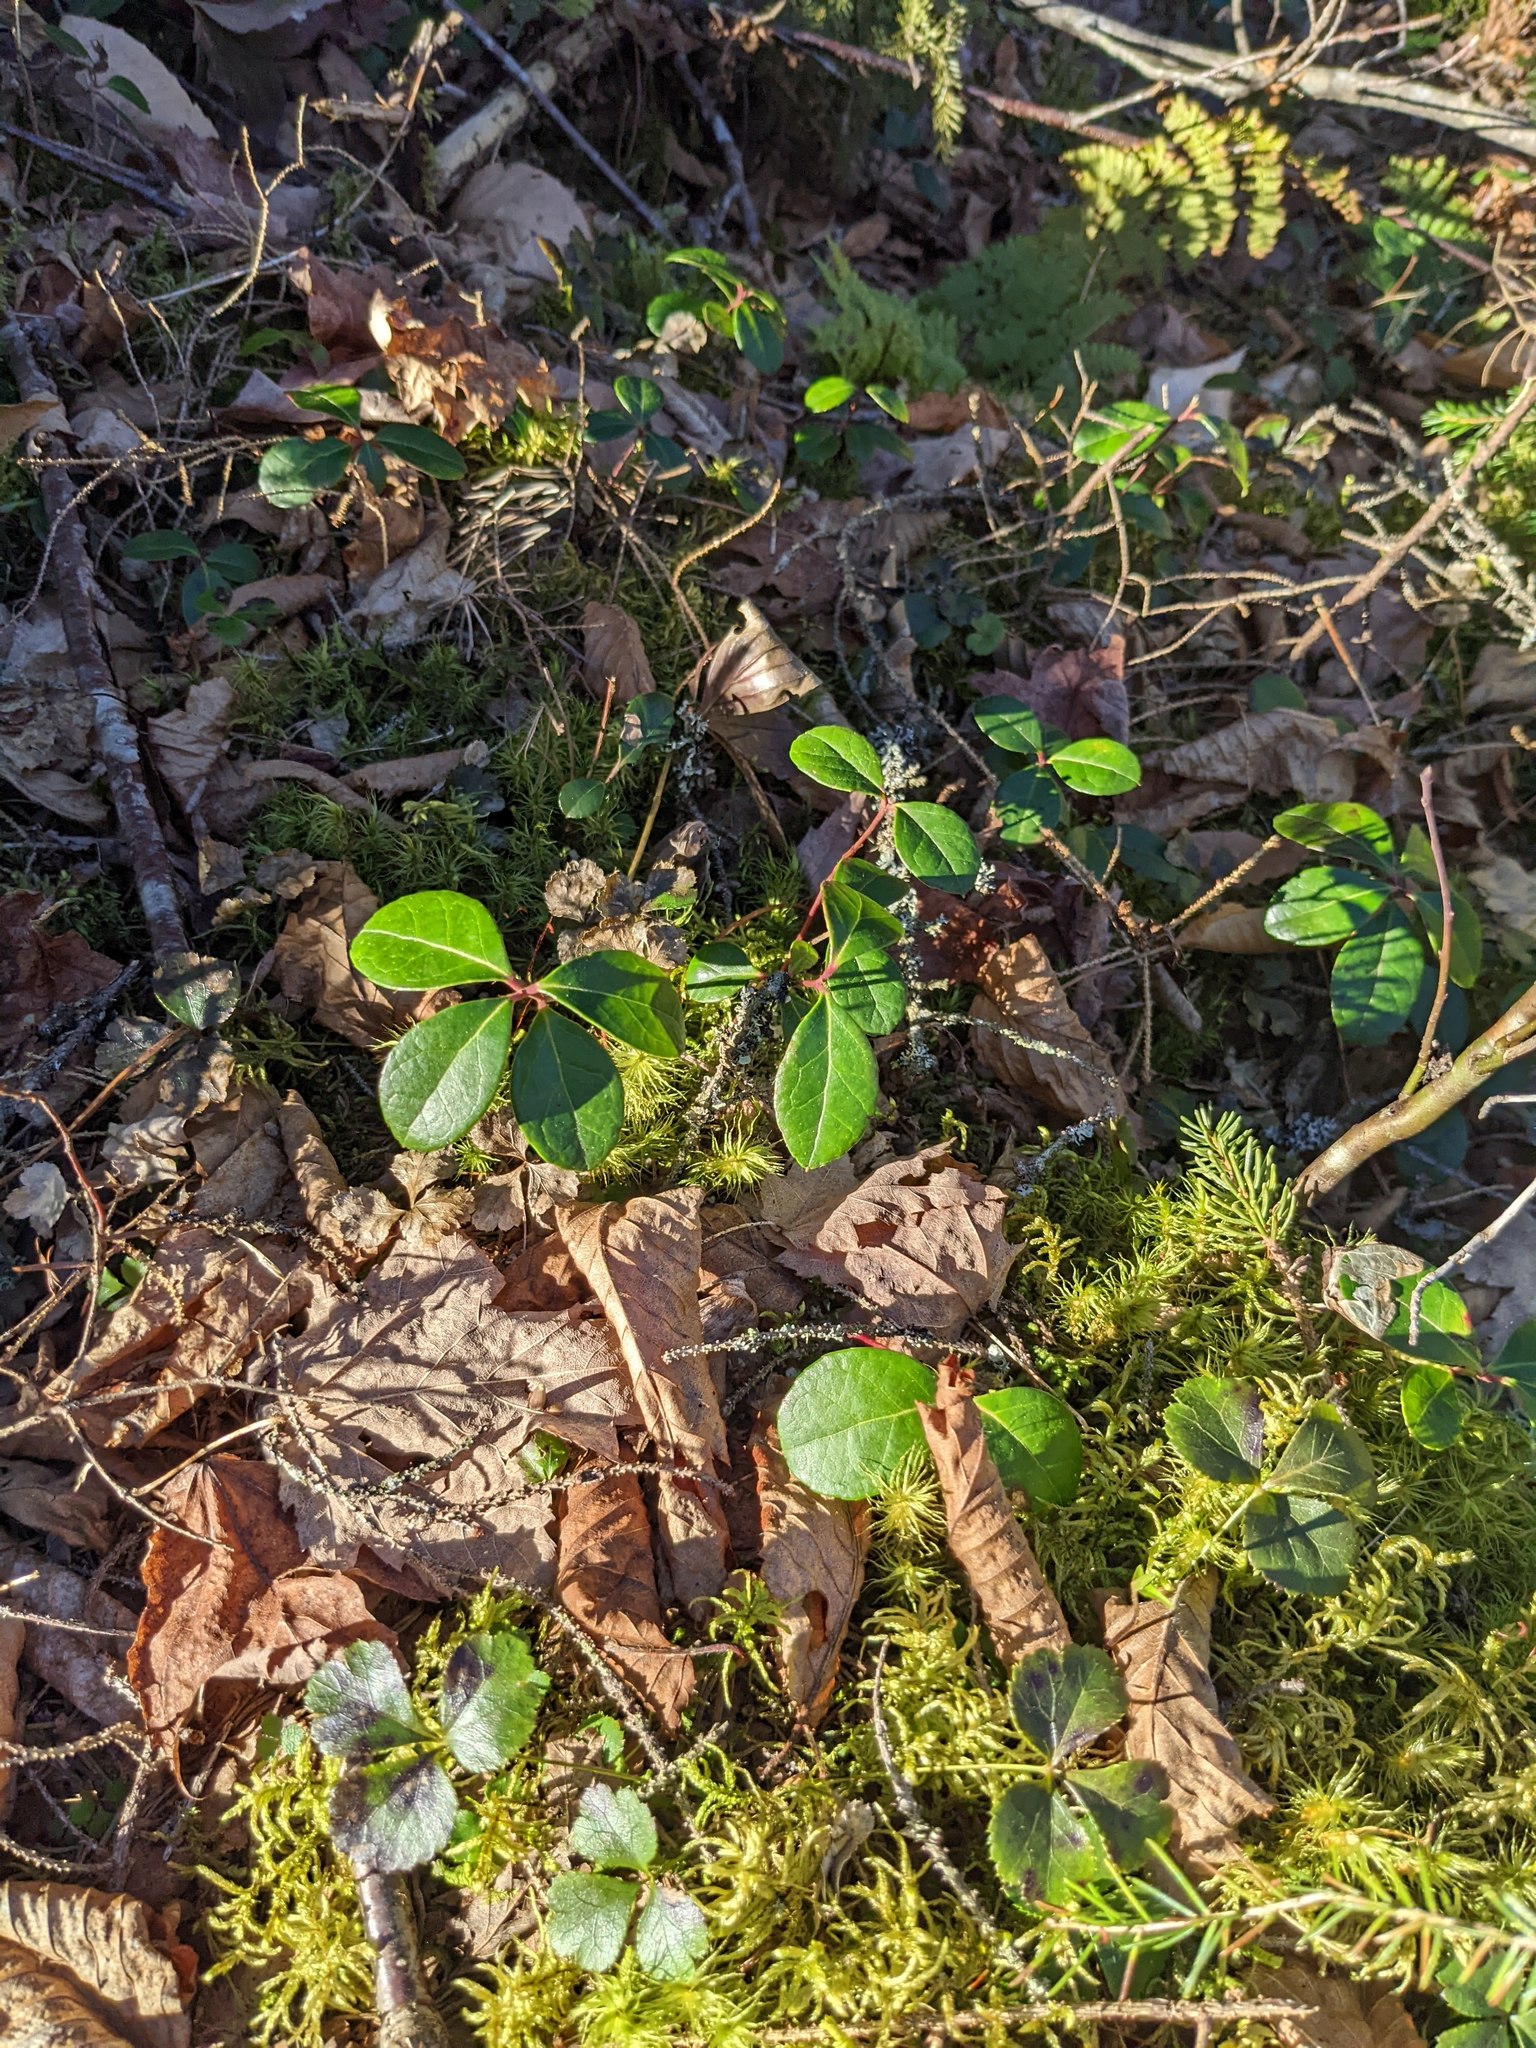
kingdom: Plantae
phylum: Tracheophyta
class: Magnoliopsida
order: Ericales
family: Ericaceae
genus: Gaultheria
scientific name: Gaultheria procumbens
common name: Checkerberry
